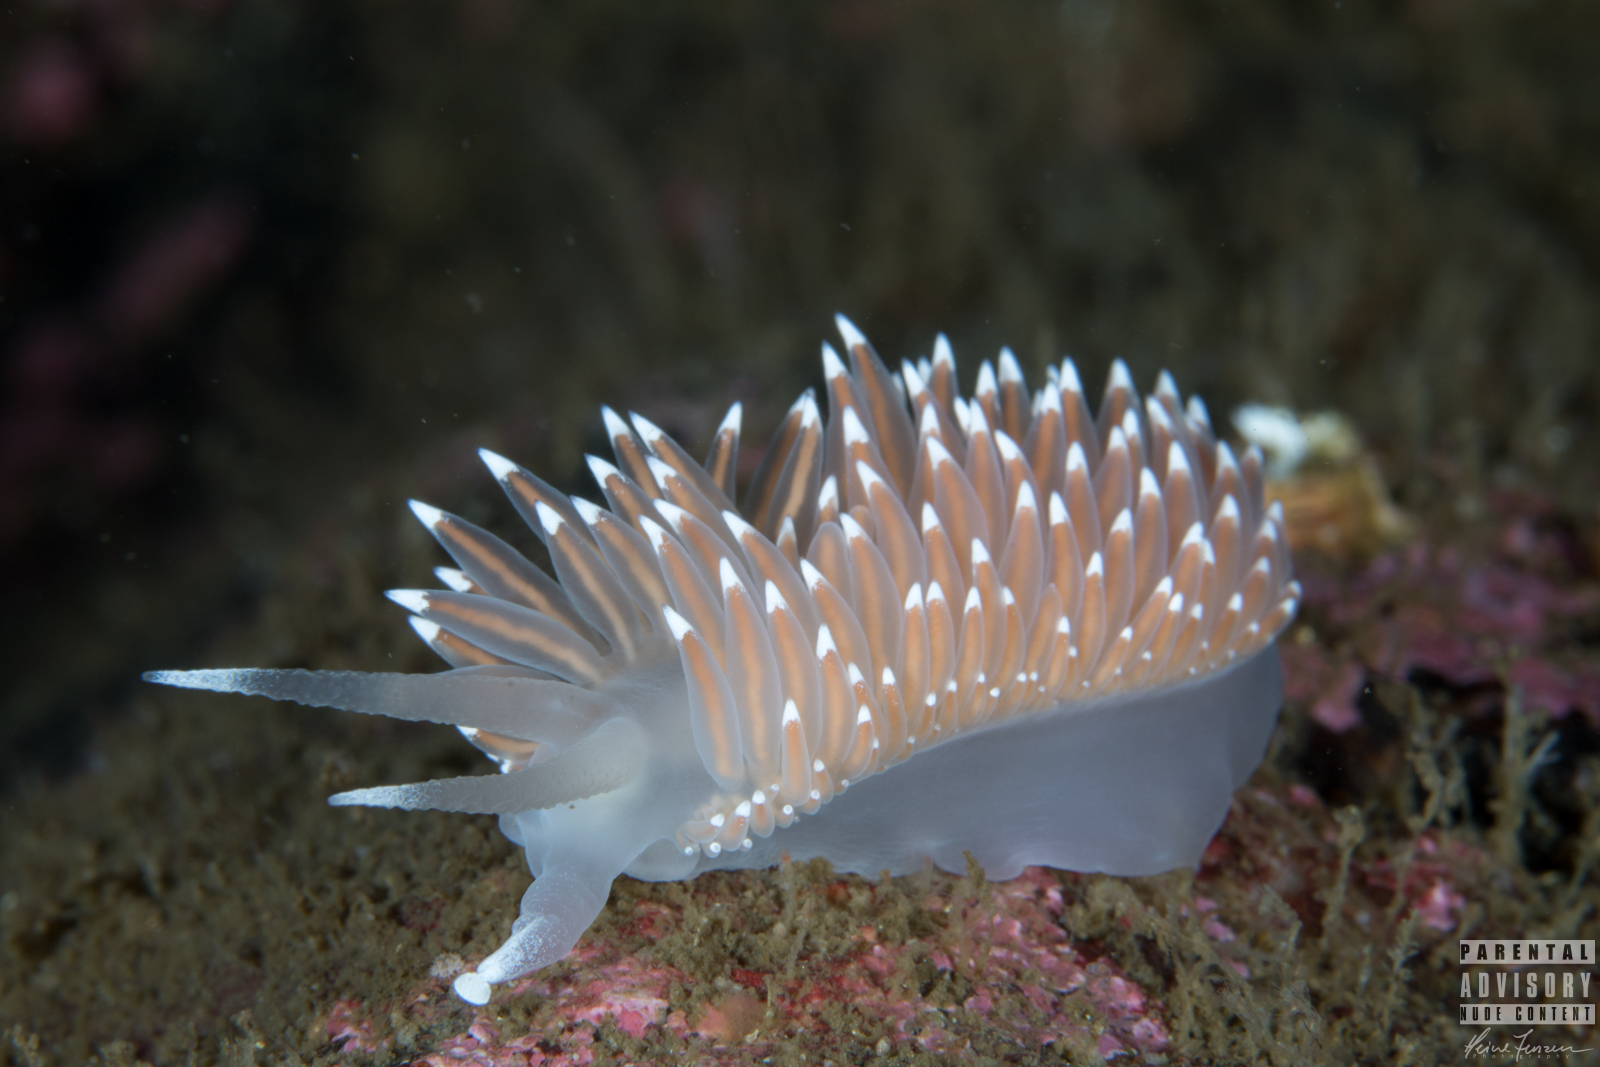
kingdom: Animalia
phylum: Mollusca
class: Gastropoda
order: Nudibranchia
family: Coryphellidae
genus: Coryphella
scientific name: Coryphella nobilis
